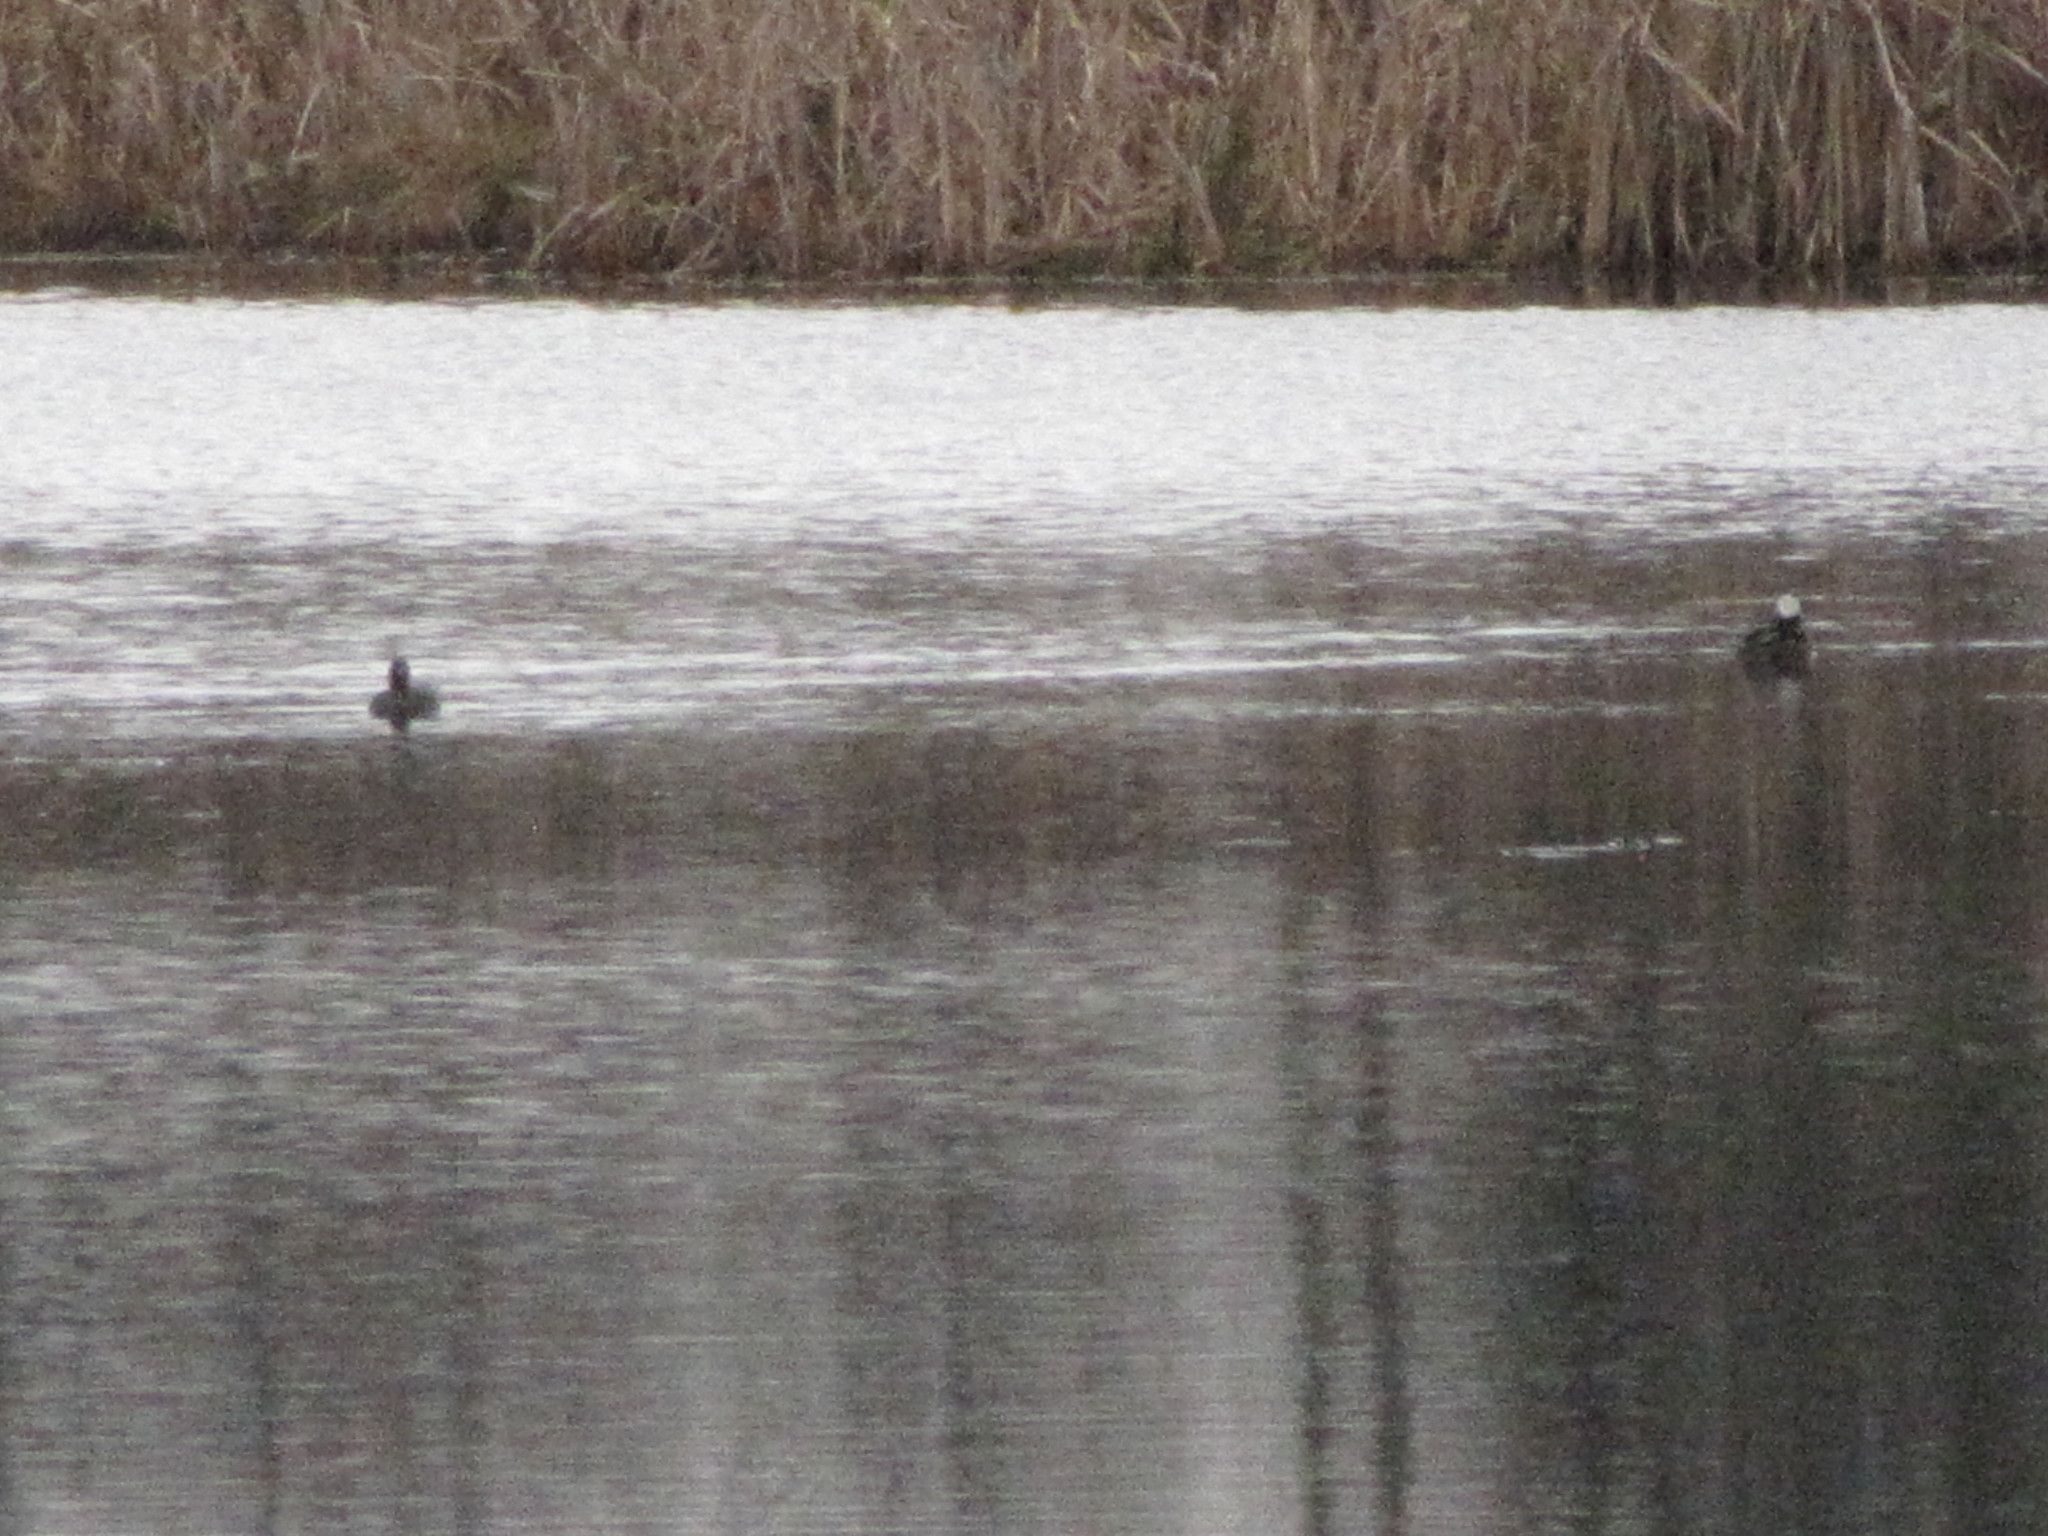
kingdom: Animalia
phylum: Chordata
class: Aves
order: Anseriformes
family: Anatidae
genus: Lophodytes
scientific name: Lophodytes cucullatus
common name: Hooded merganser
